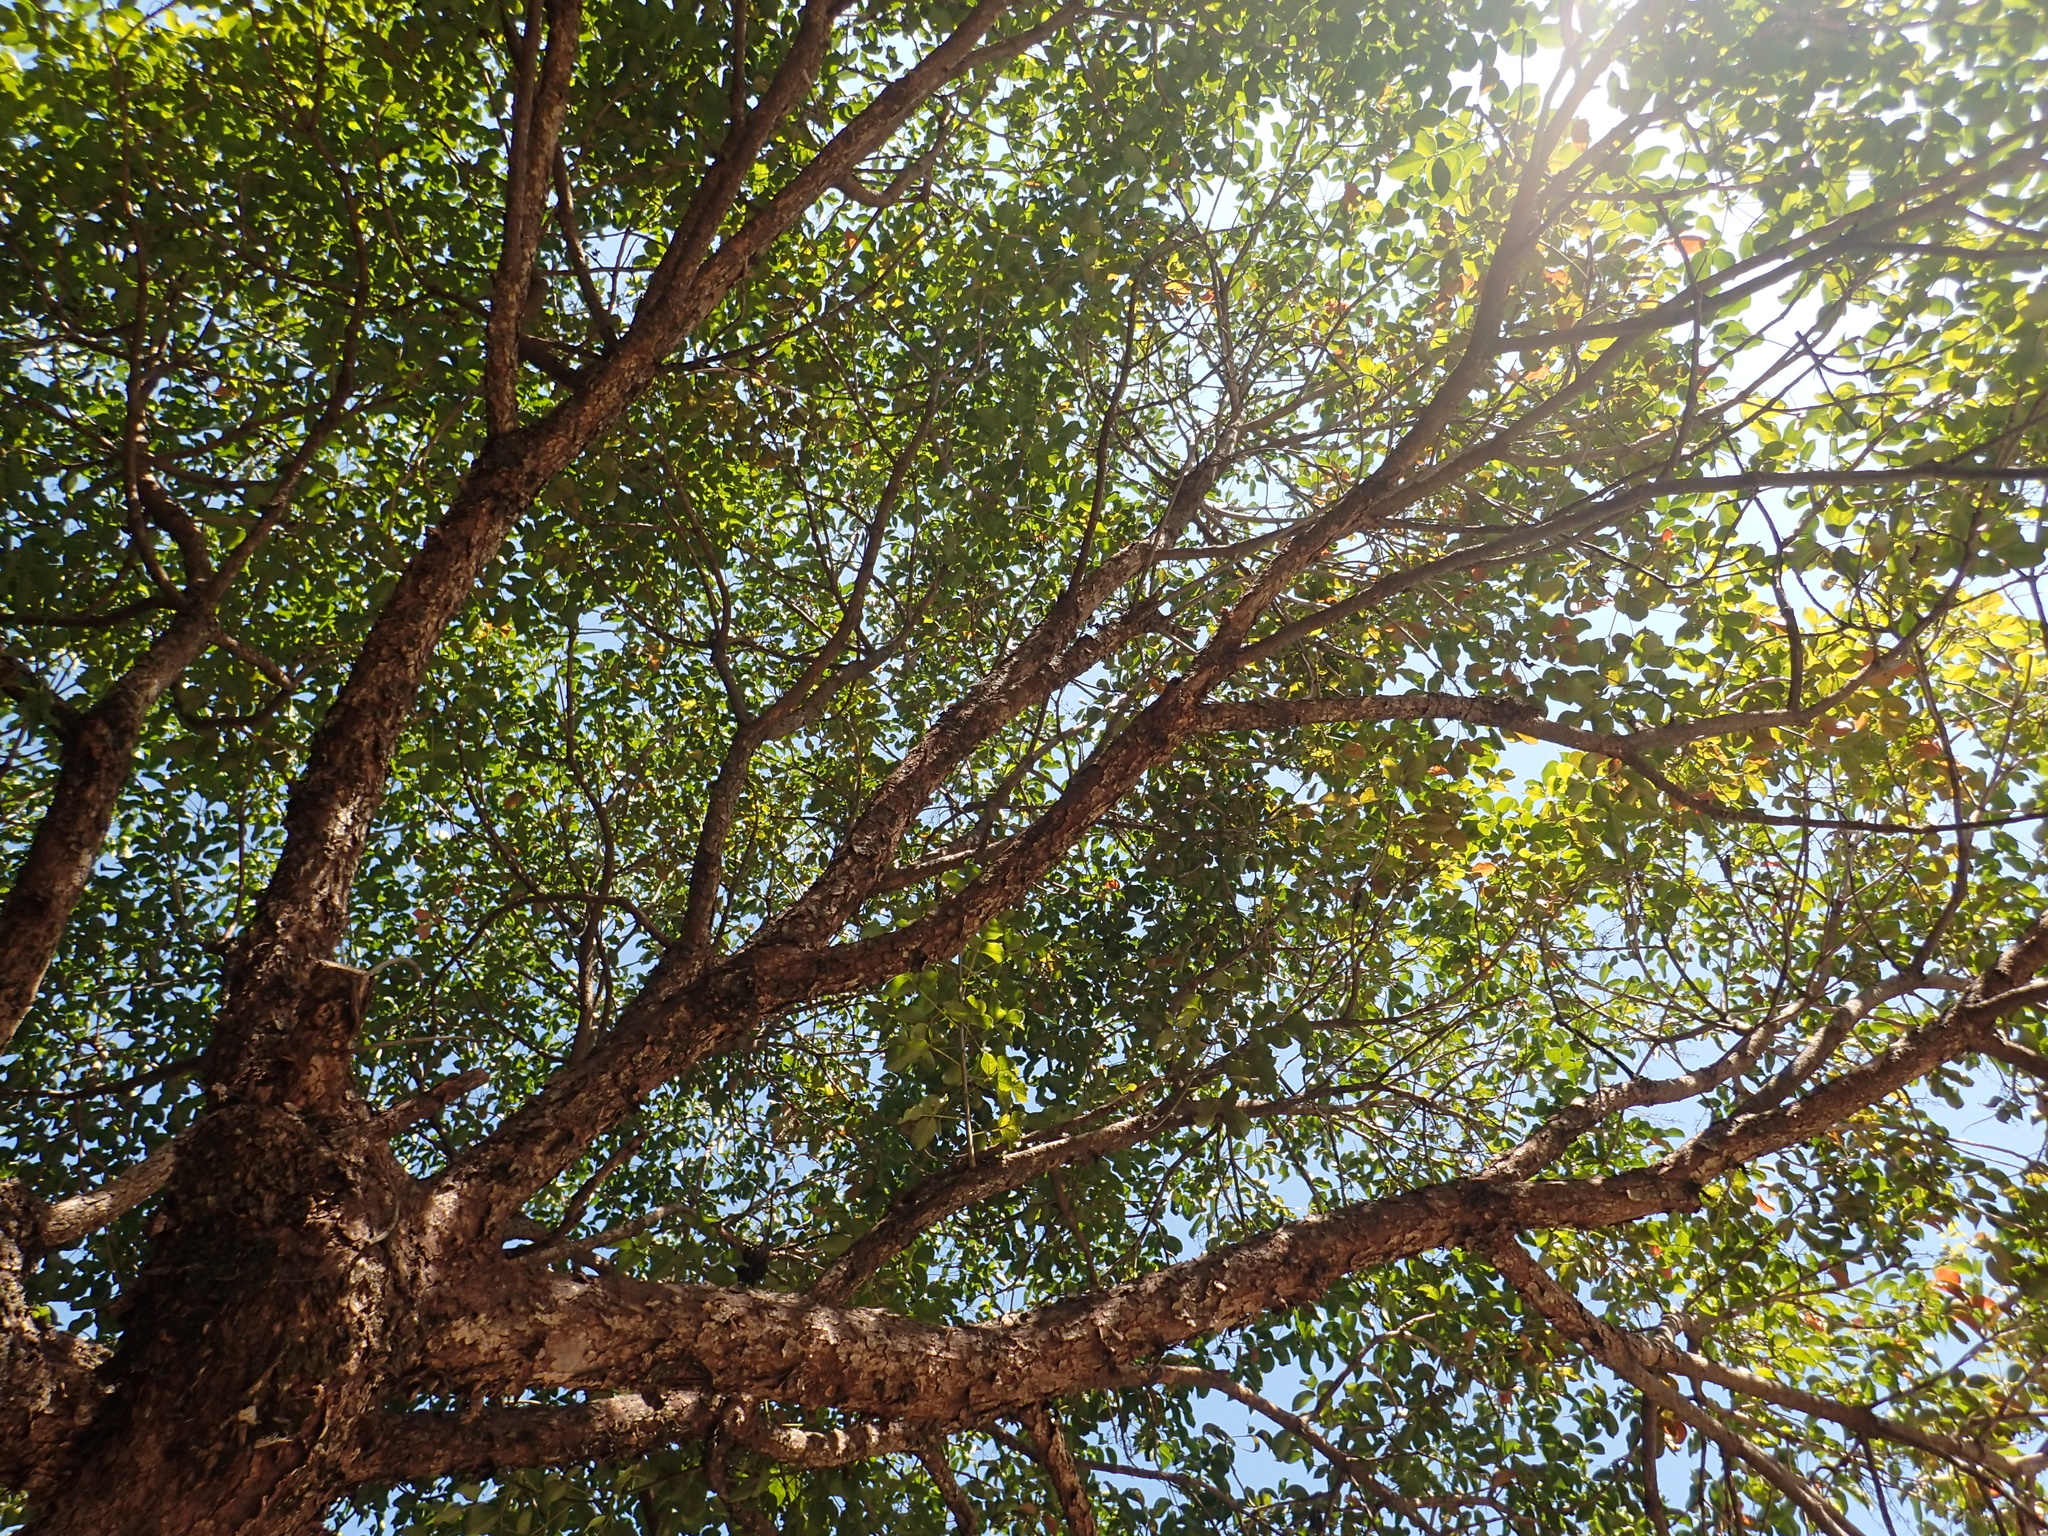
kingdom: Plantae
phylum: Tracheophyta
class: Magnoliopsida
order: Malpighiales
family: Phyllanthaceae
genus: Bischofia
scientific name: Bischofia javanica
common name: Javanese bishopwood
